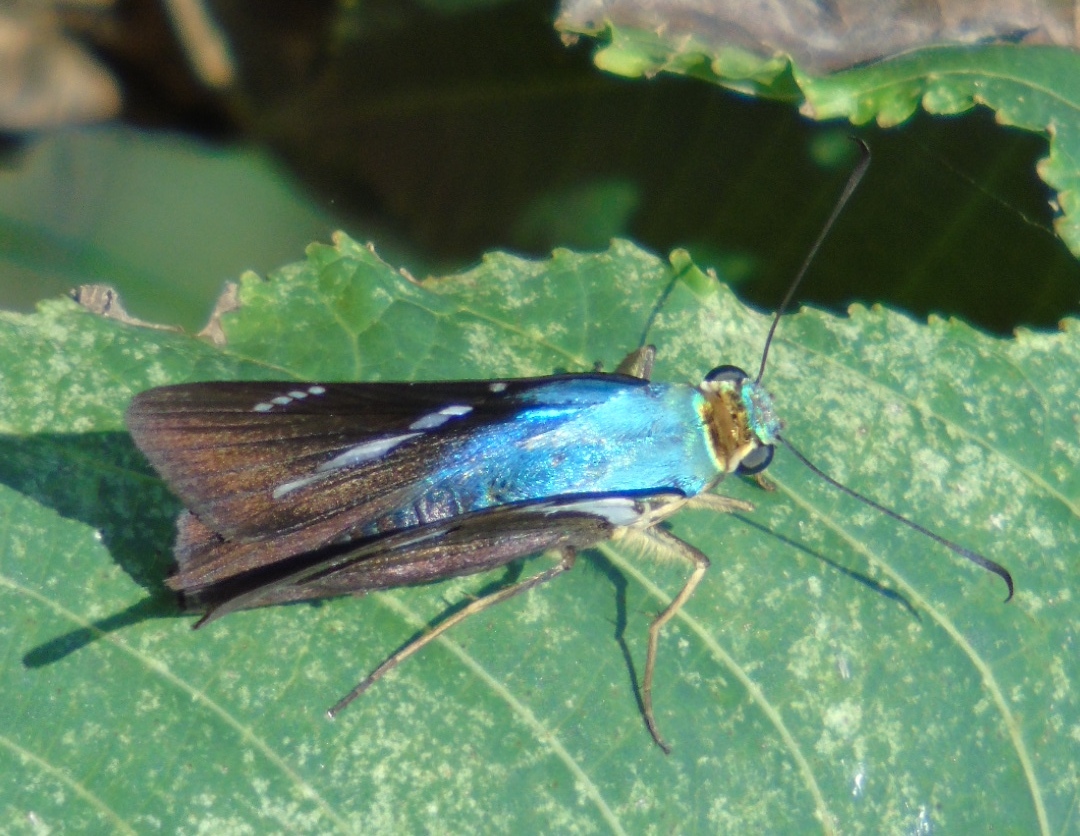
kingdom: Animalia
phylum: Arthropoda
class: Insecta
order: Lepidoptera
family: Hesperiidae
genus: Astraptes
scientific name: Astraptes fulgerator
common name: Two-barred flasher
